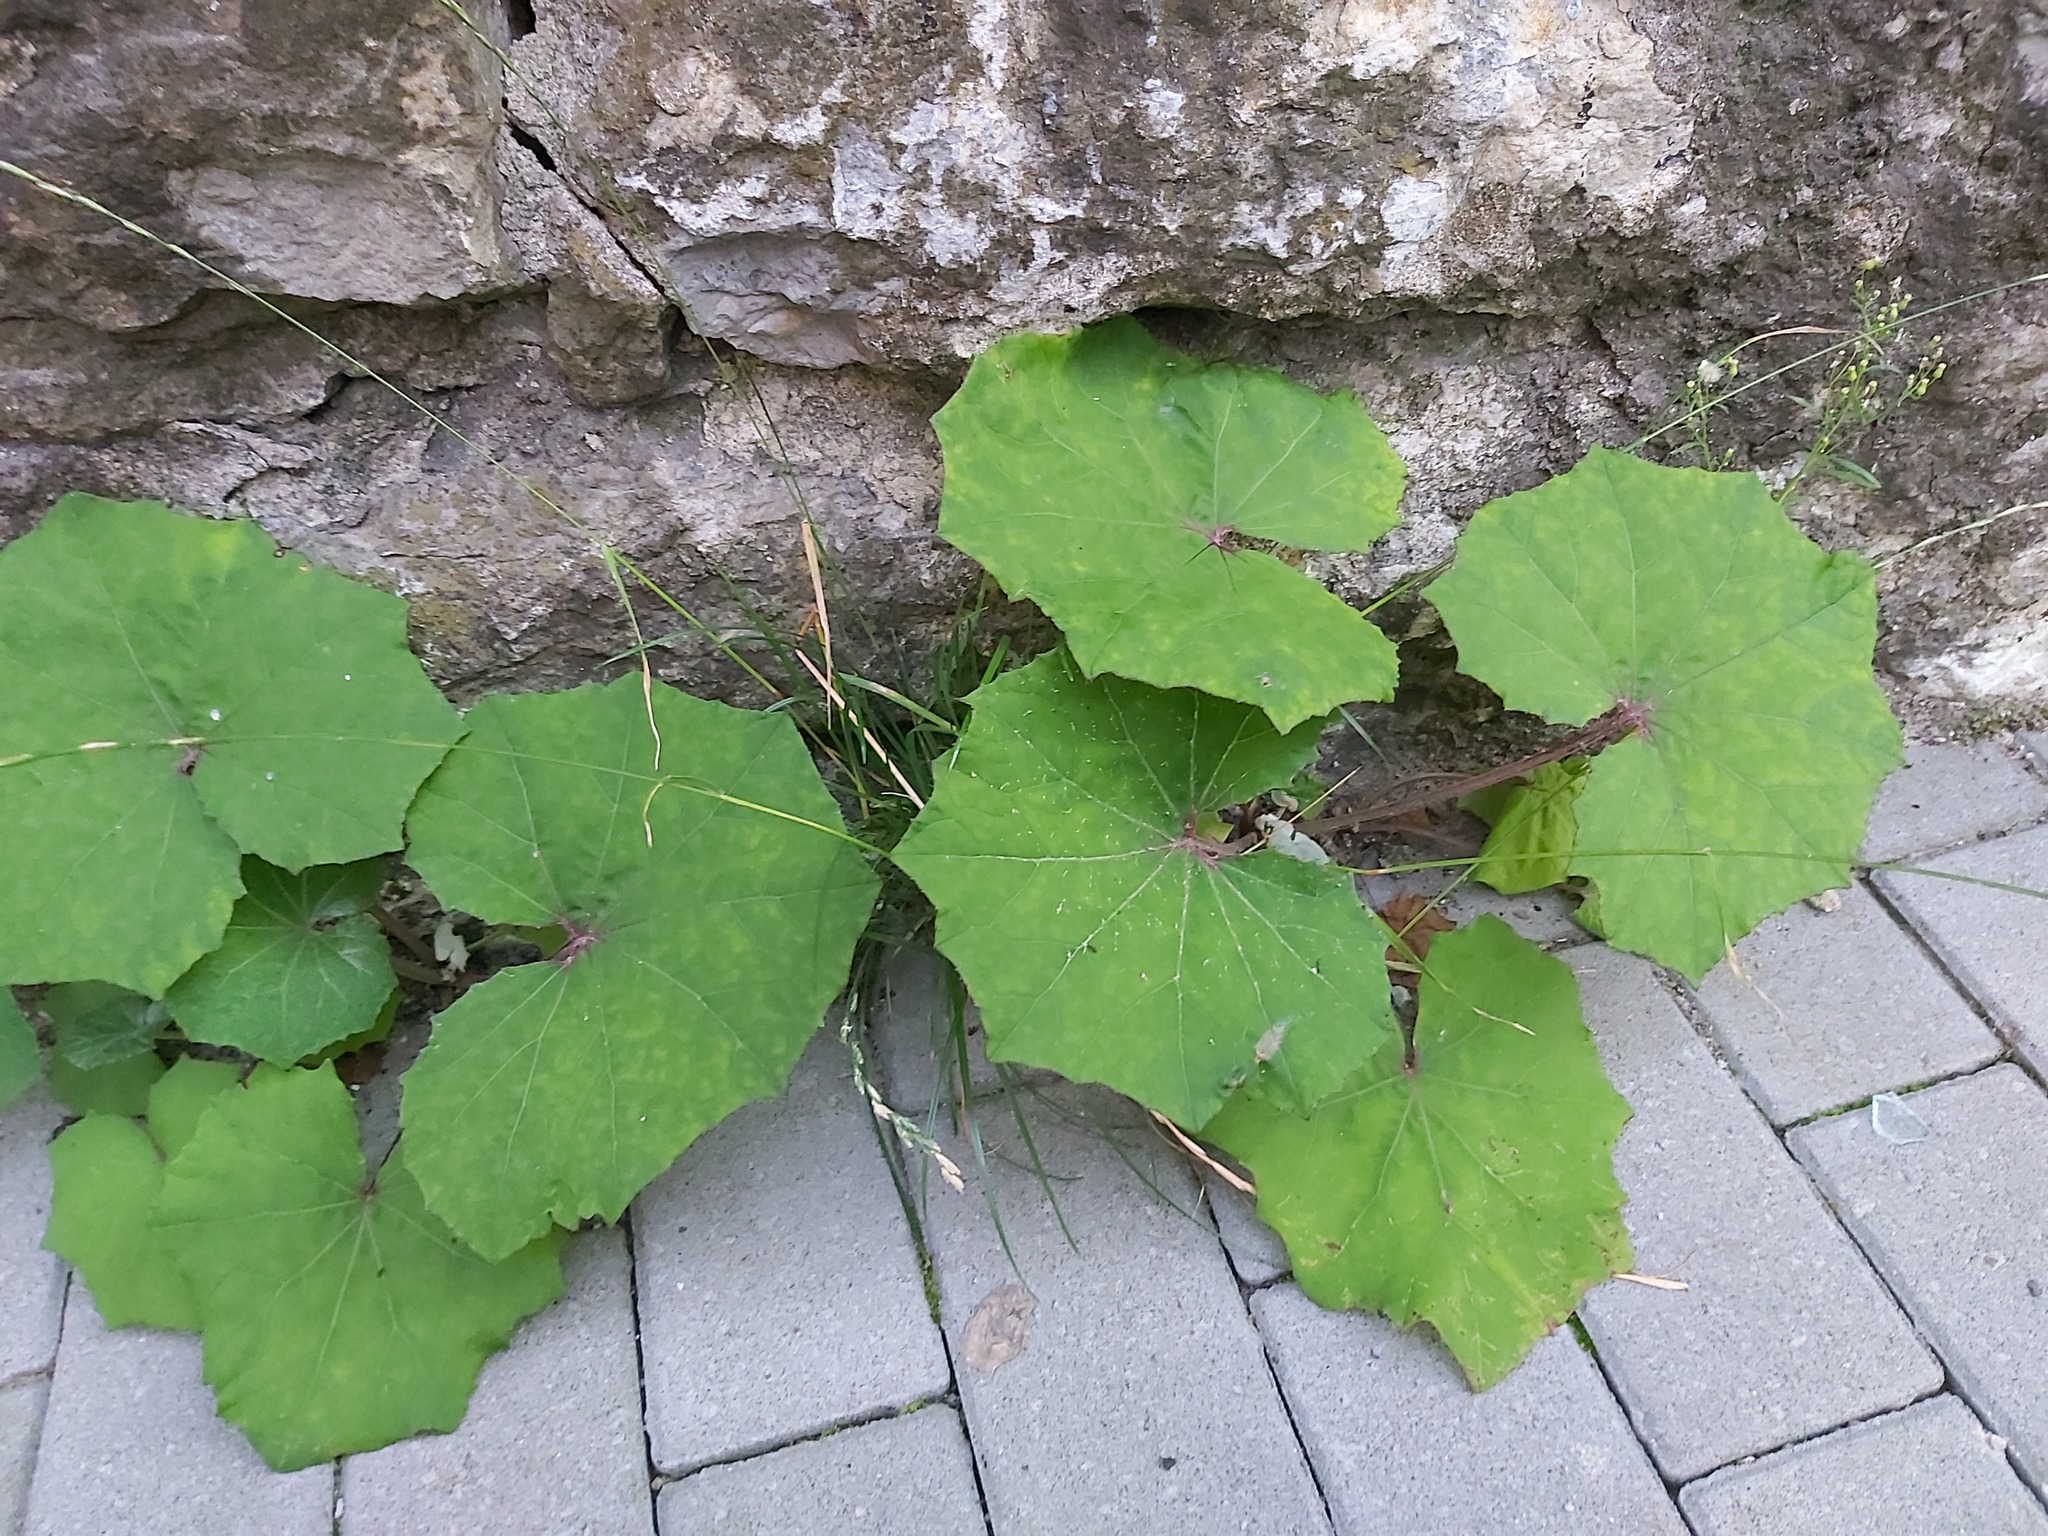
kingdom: Plantae
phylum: Tracheophyta
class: Magnoliopsida
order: Asterales
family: Asteraceae
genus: Tussilago
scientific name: Tussilago farfara
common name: Coltsfoot
